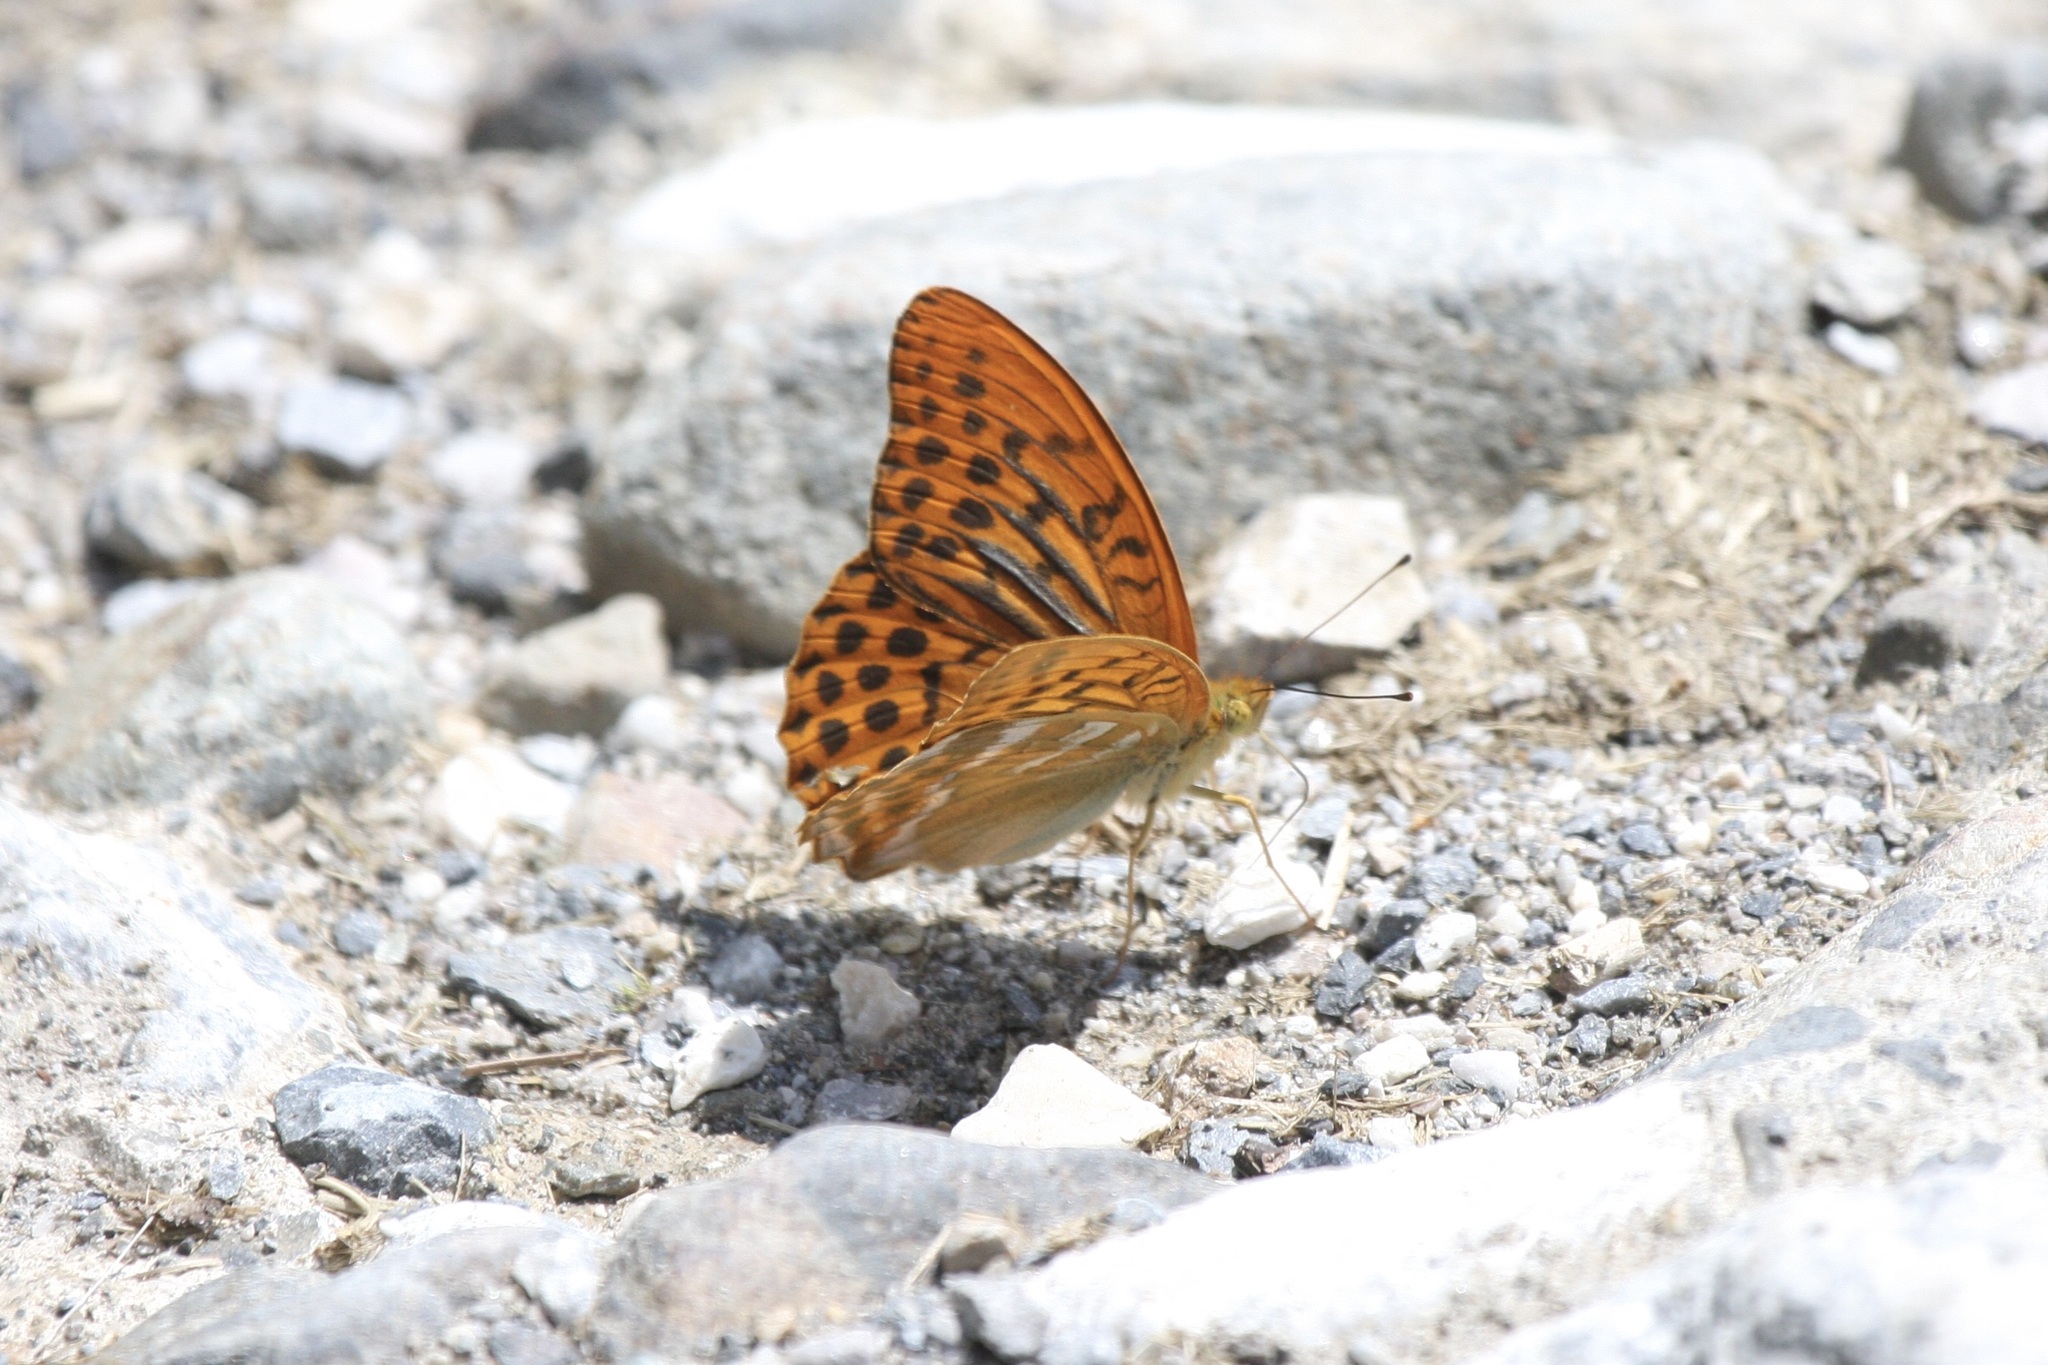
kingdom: Animalia
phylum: Arthropoda
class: Insecta
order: Lepidoptera
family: Nymphalidae
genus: Argynnis
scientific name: Argynnis paphia
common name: Silver-washed fritillary
